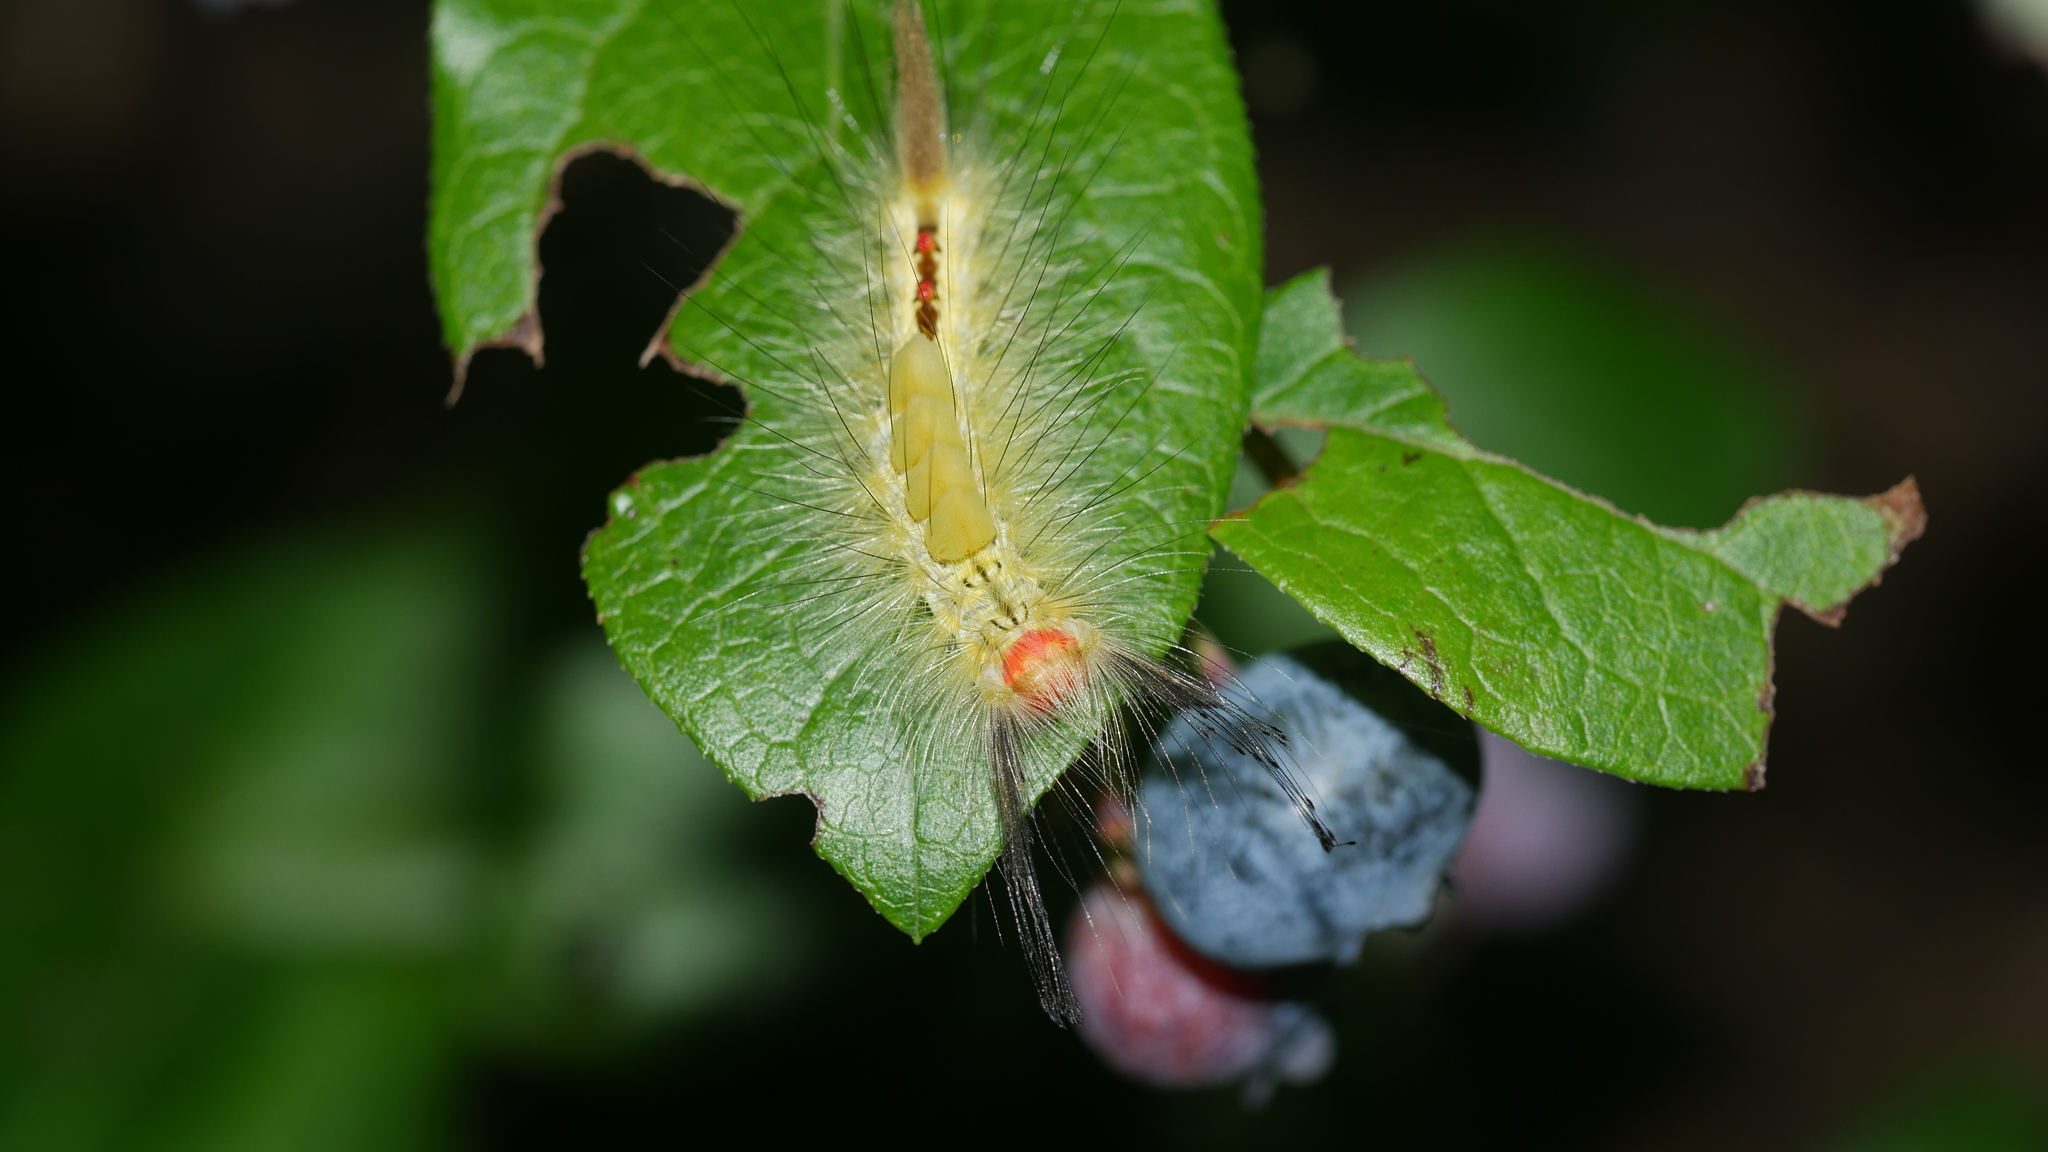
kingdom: Animalia
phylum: Arthropoda
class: Insecta
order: Lepidoptera
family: Erebidae
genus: Orgyia
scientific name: Orgyia leucostigma
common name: White-marked tussock moth
